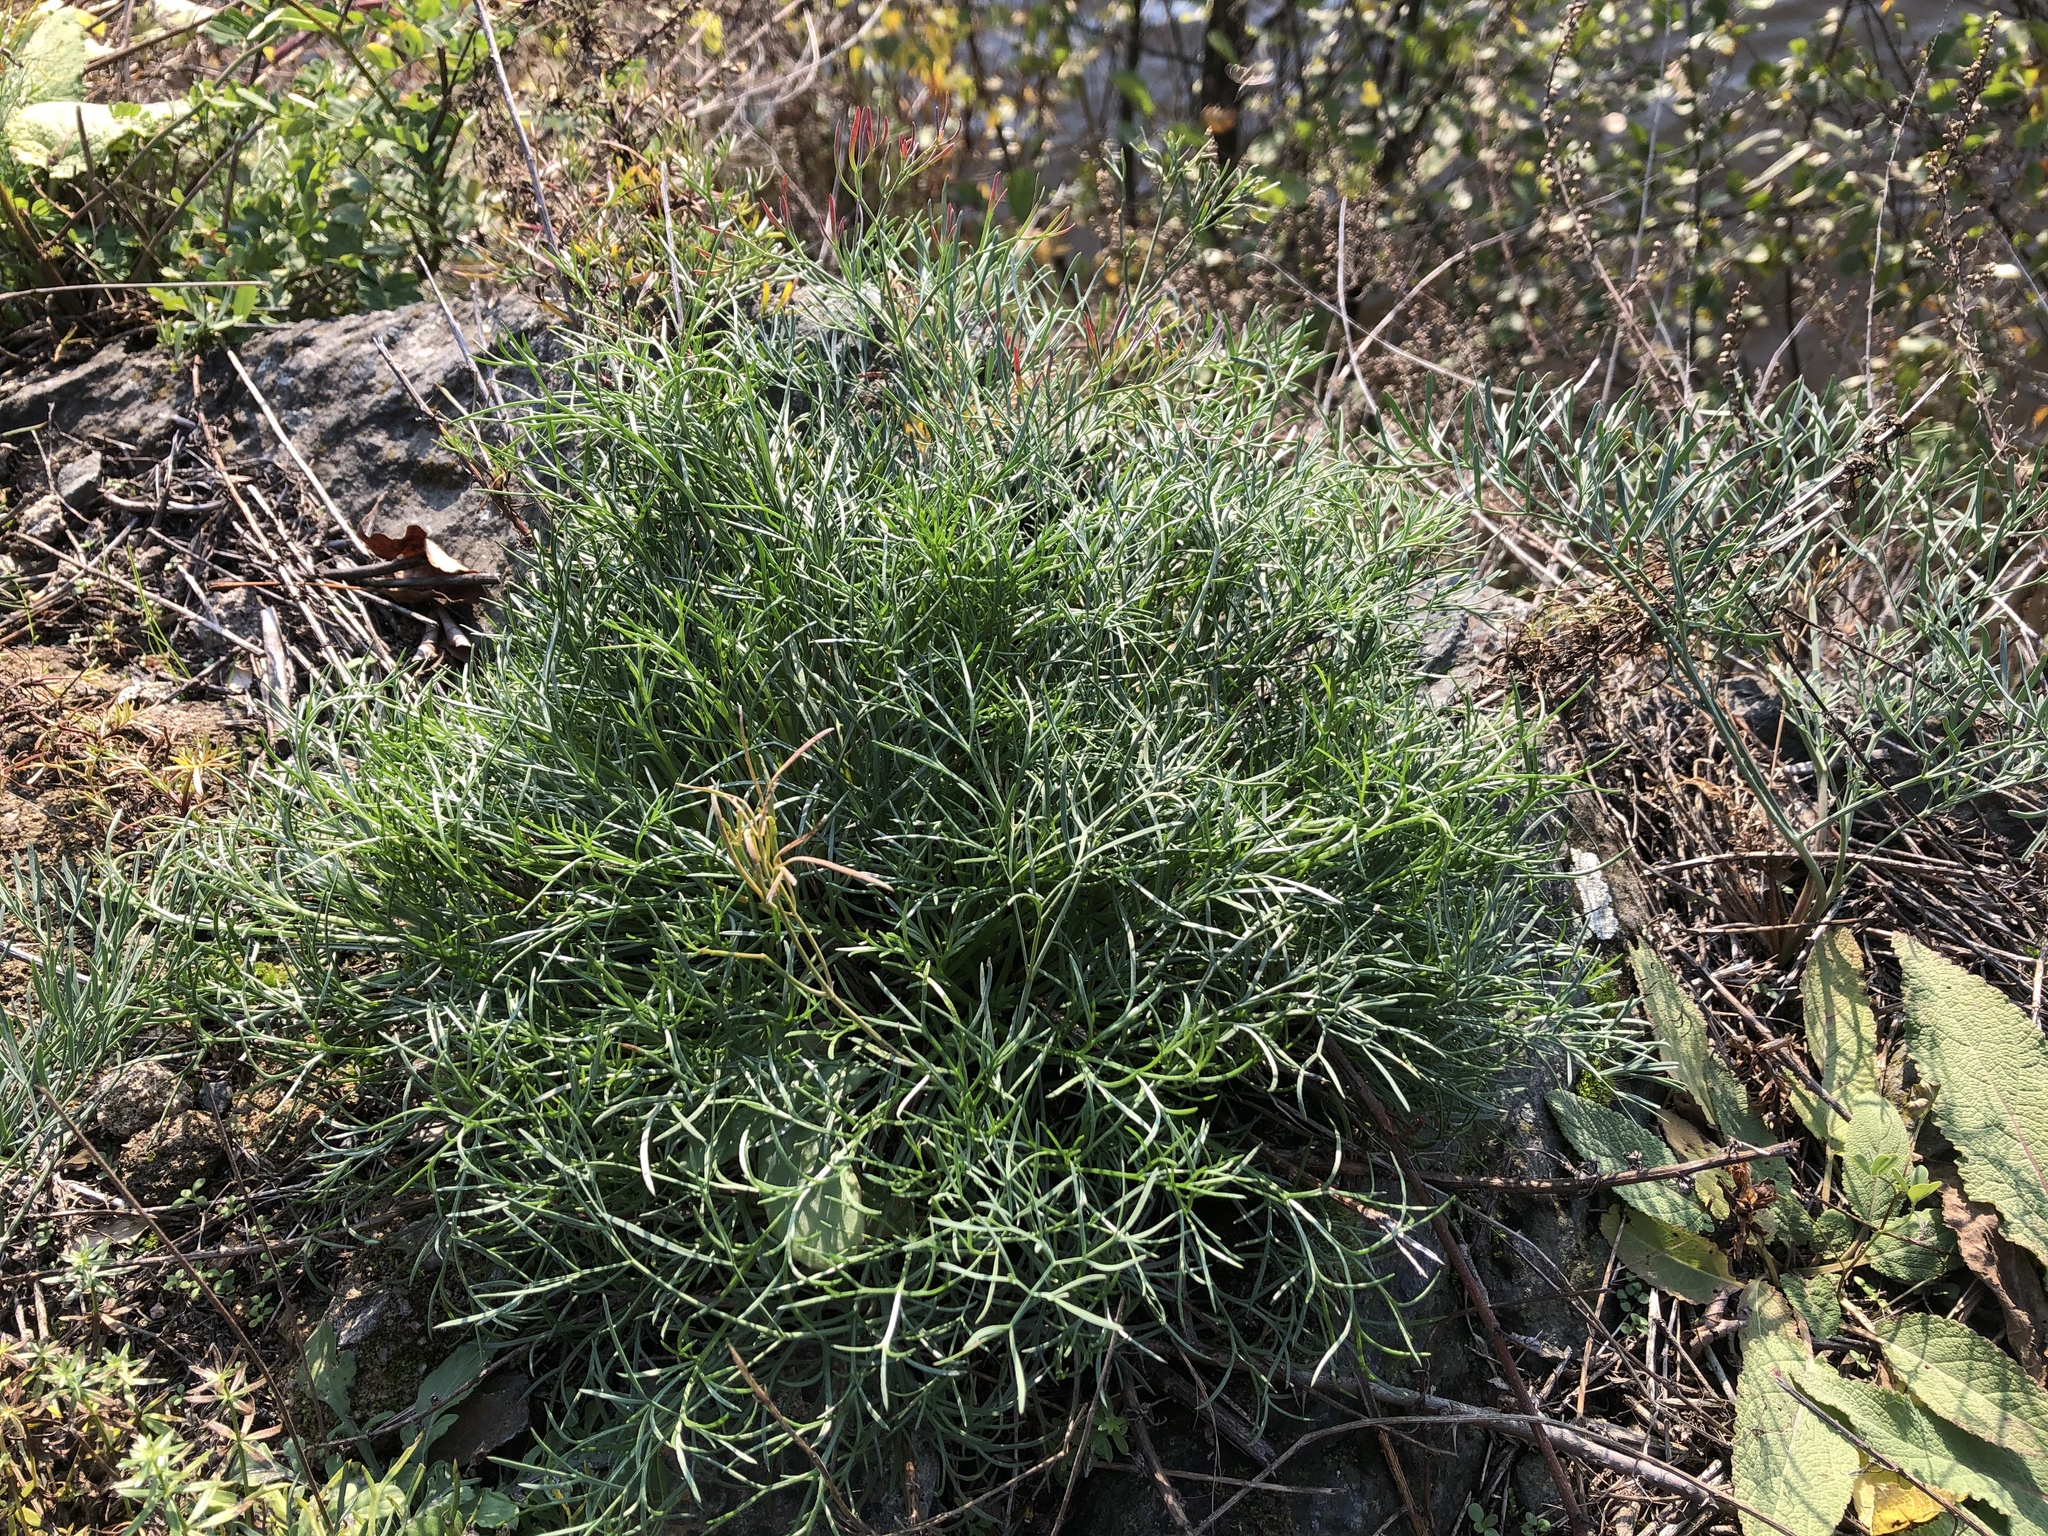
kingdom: Plantae
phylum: Tracheophyta
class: Magnoliopsida
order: Apiales
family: Apiaceae
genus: Seseli
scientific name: Seseli osseum
